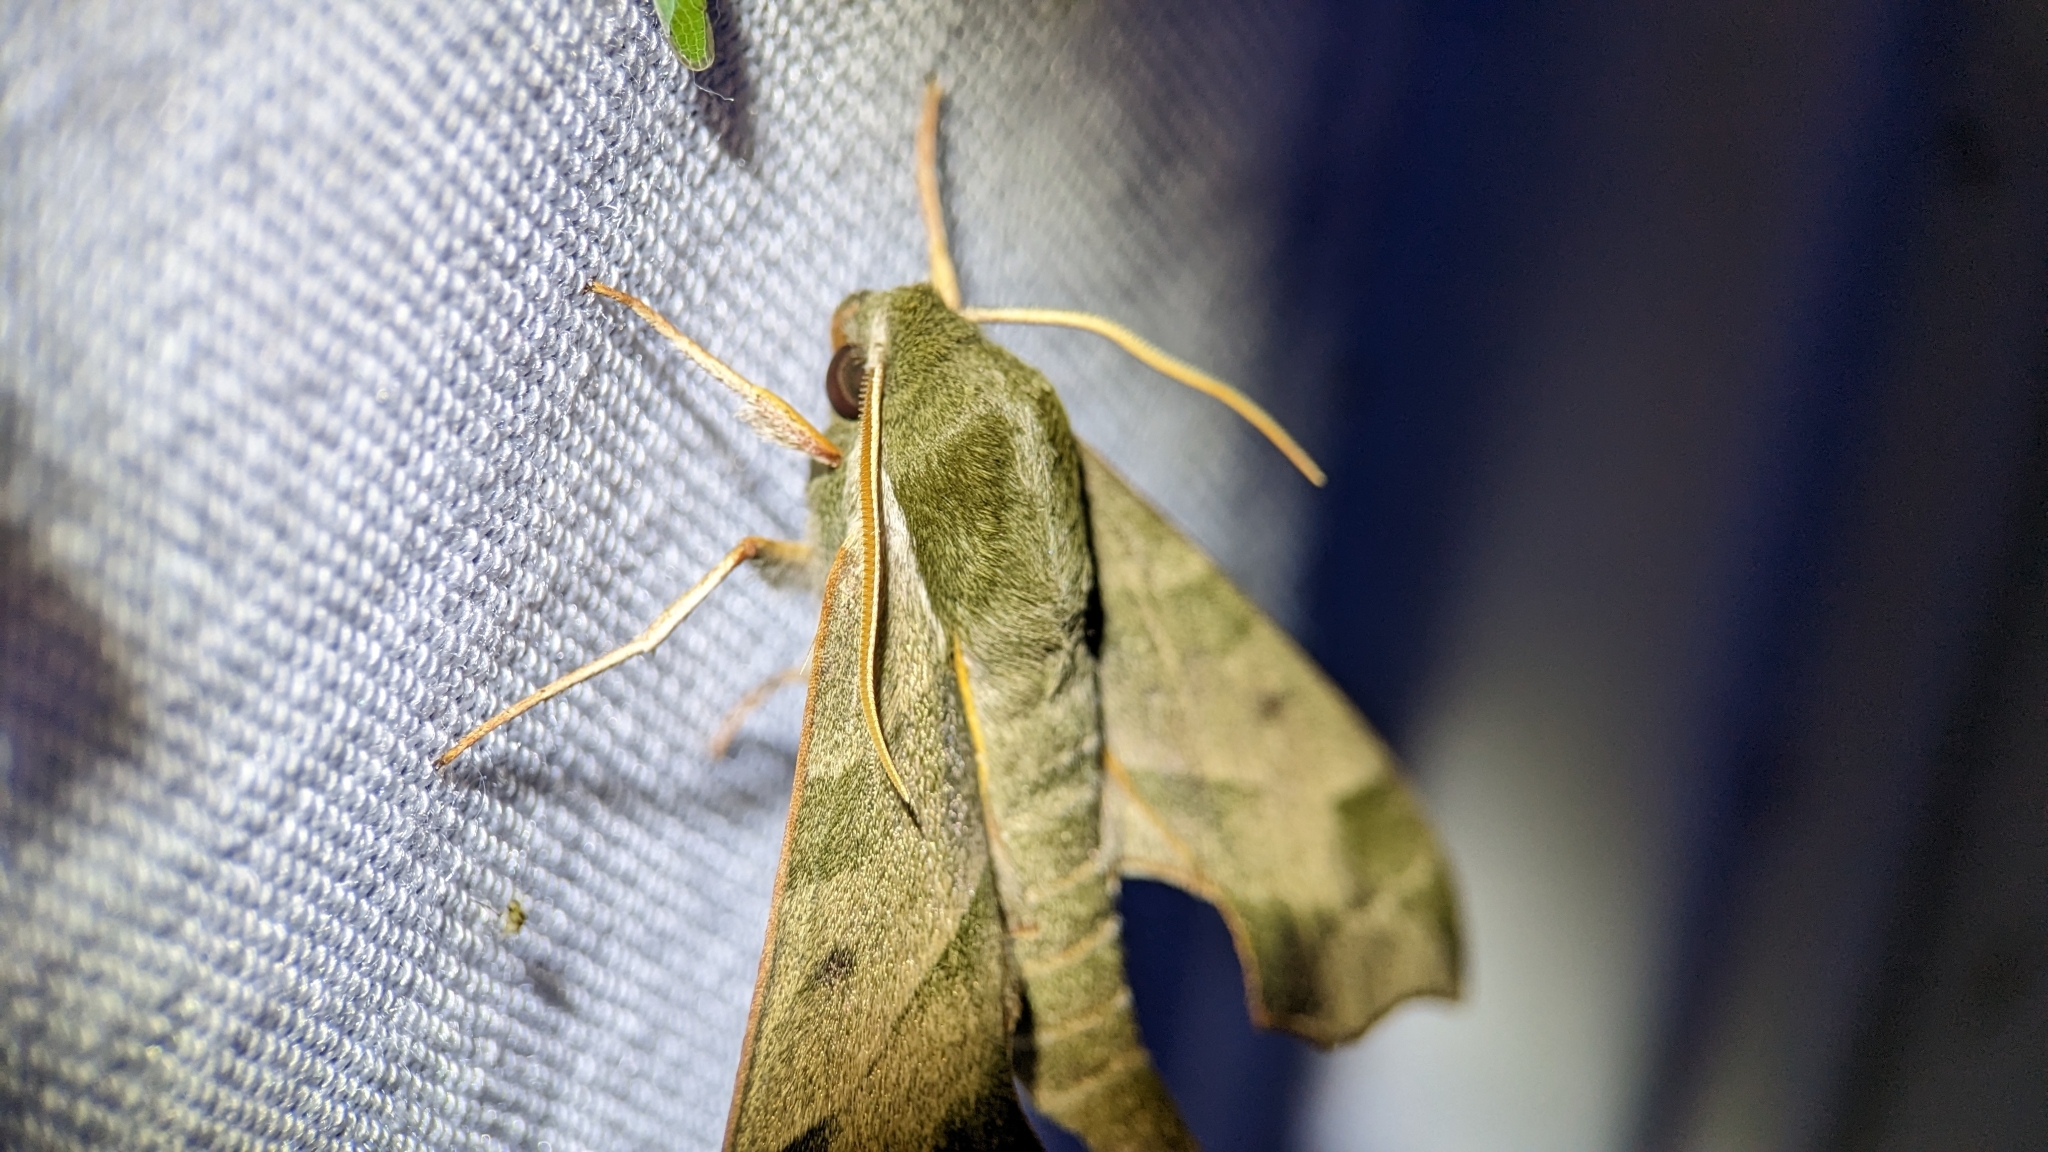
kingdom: Animalia
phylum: Arthropoda
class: Insecta
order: Lepidoptera
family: Sphingidae
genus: Darapsa
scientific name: Darapsa myron
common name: Hog sphinx
